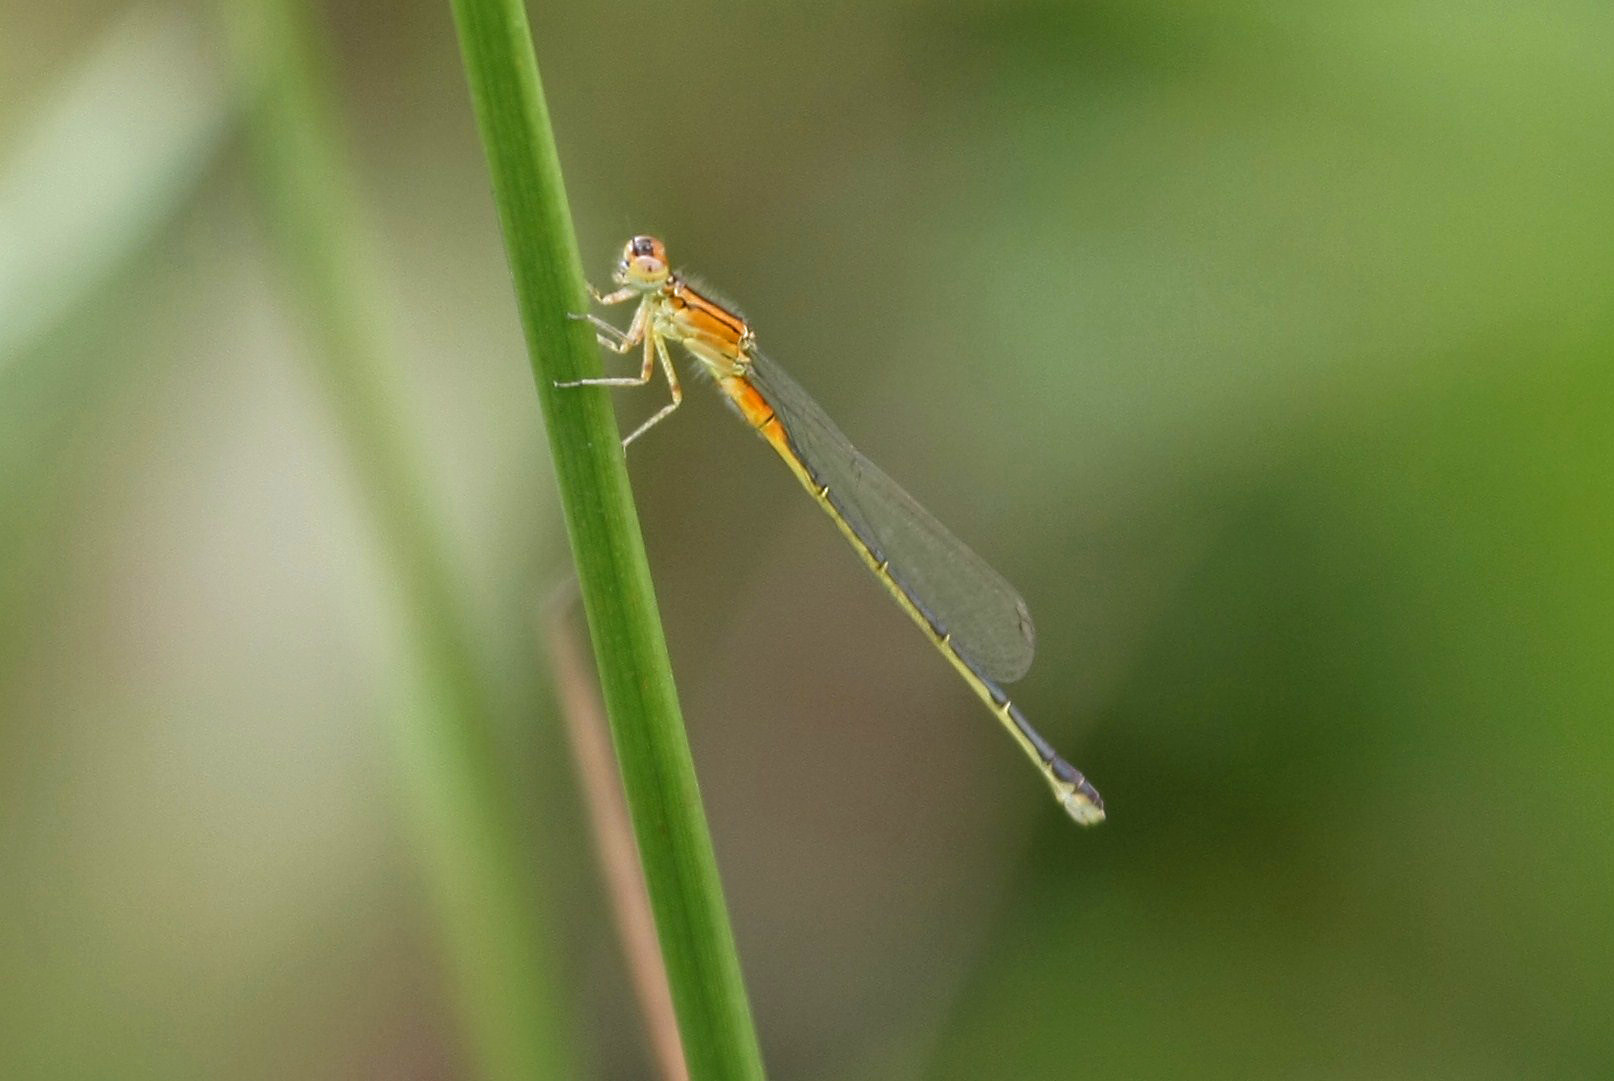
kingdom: Animalia
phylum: Arthropoda
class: Insecta
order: Odonata
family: Coenagrionidae
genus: Ischnura
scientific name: Ischnura verticalis
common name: Eastern forktail
